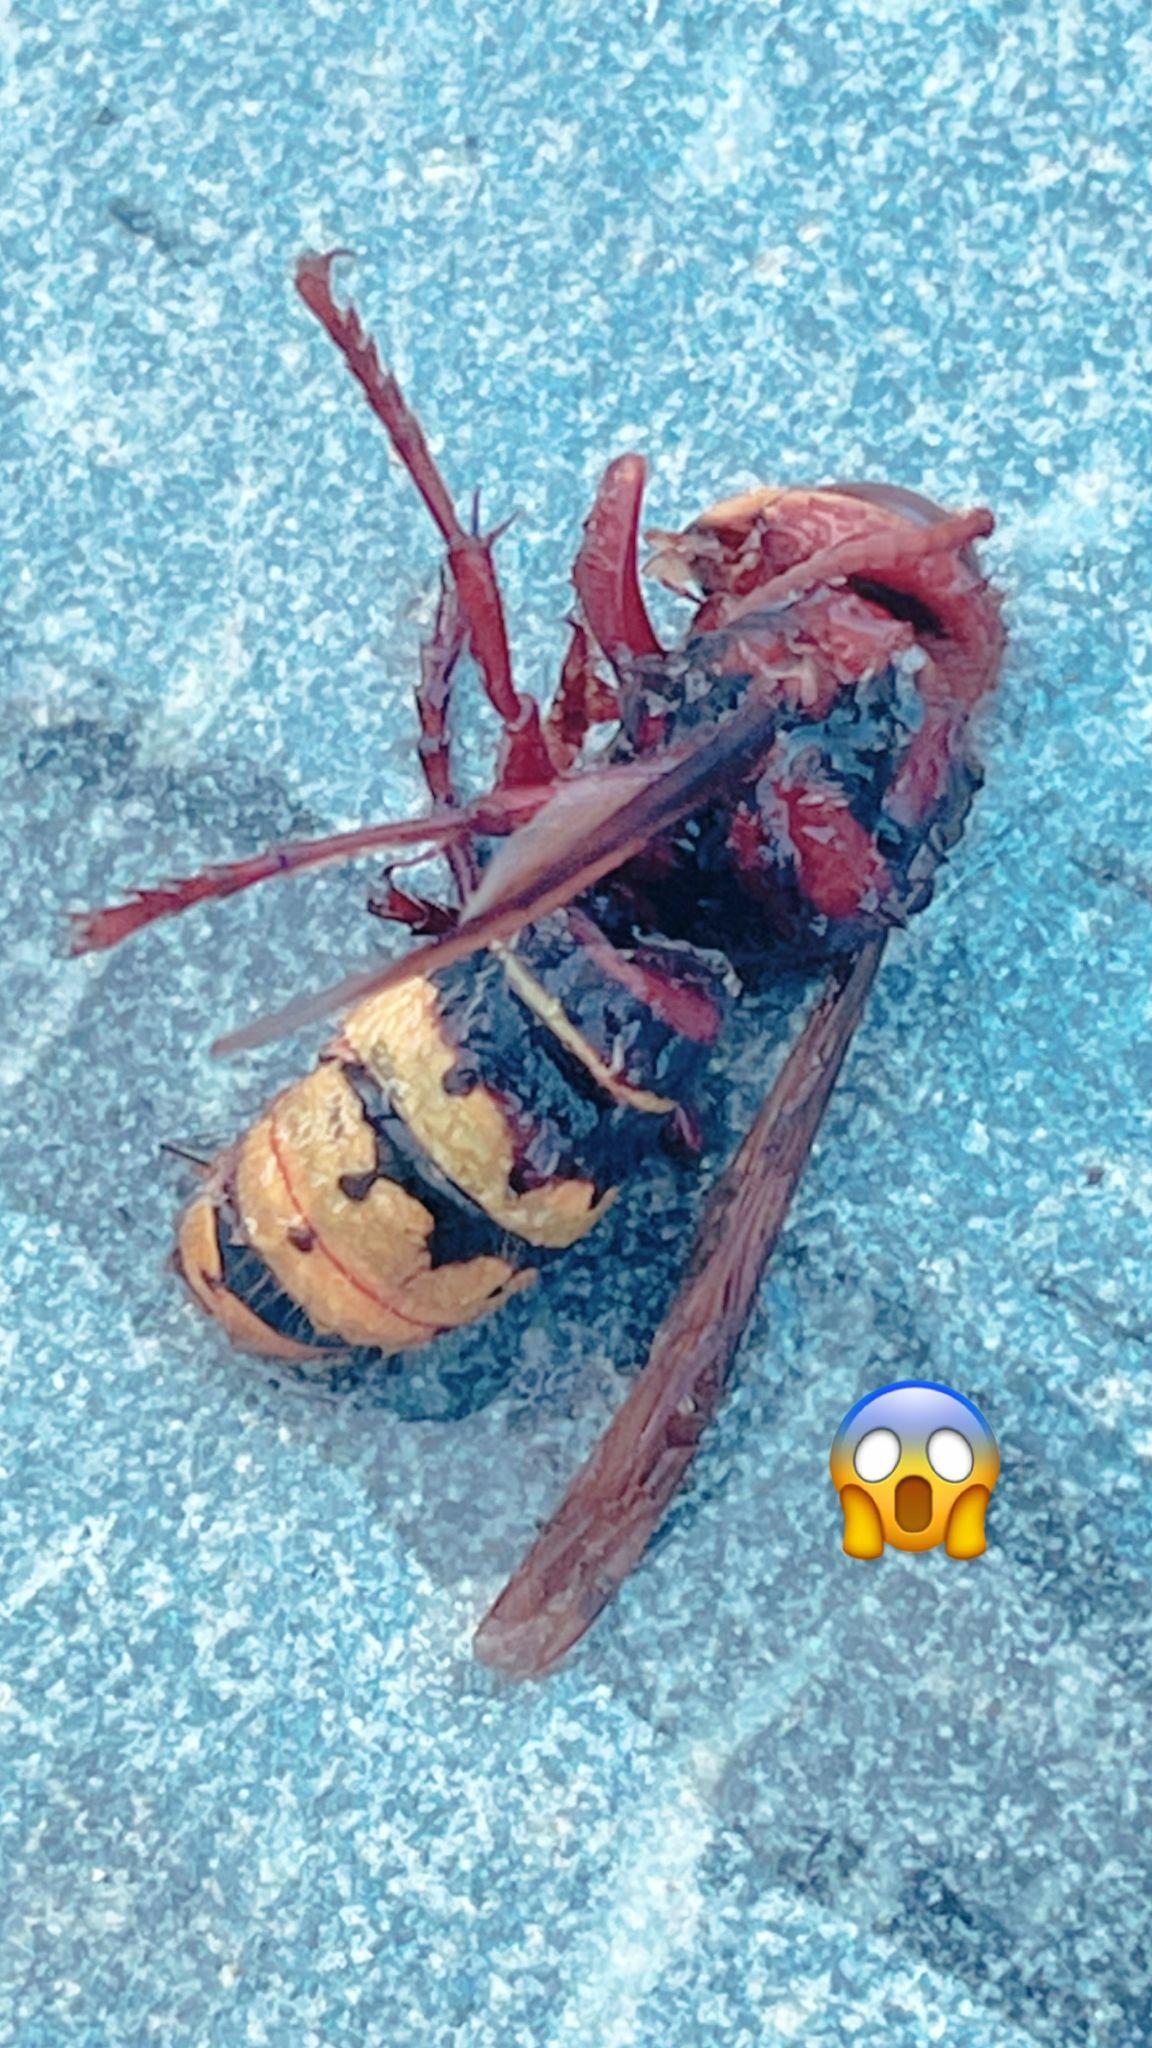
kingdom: Animalia
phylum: Arthropoda
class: Insecta
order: Hymenoptera
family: Vespidae
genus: Vespa
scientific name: Vespa crabro
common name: Hornet
